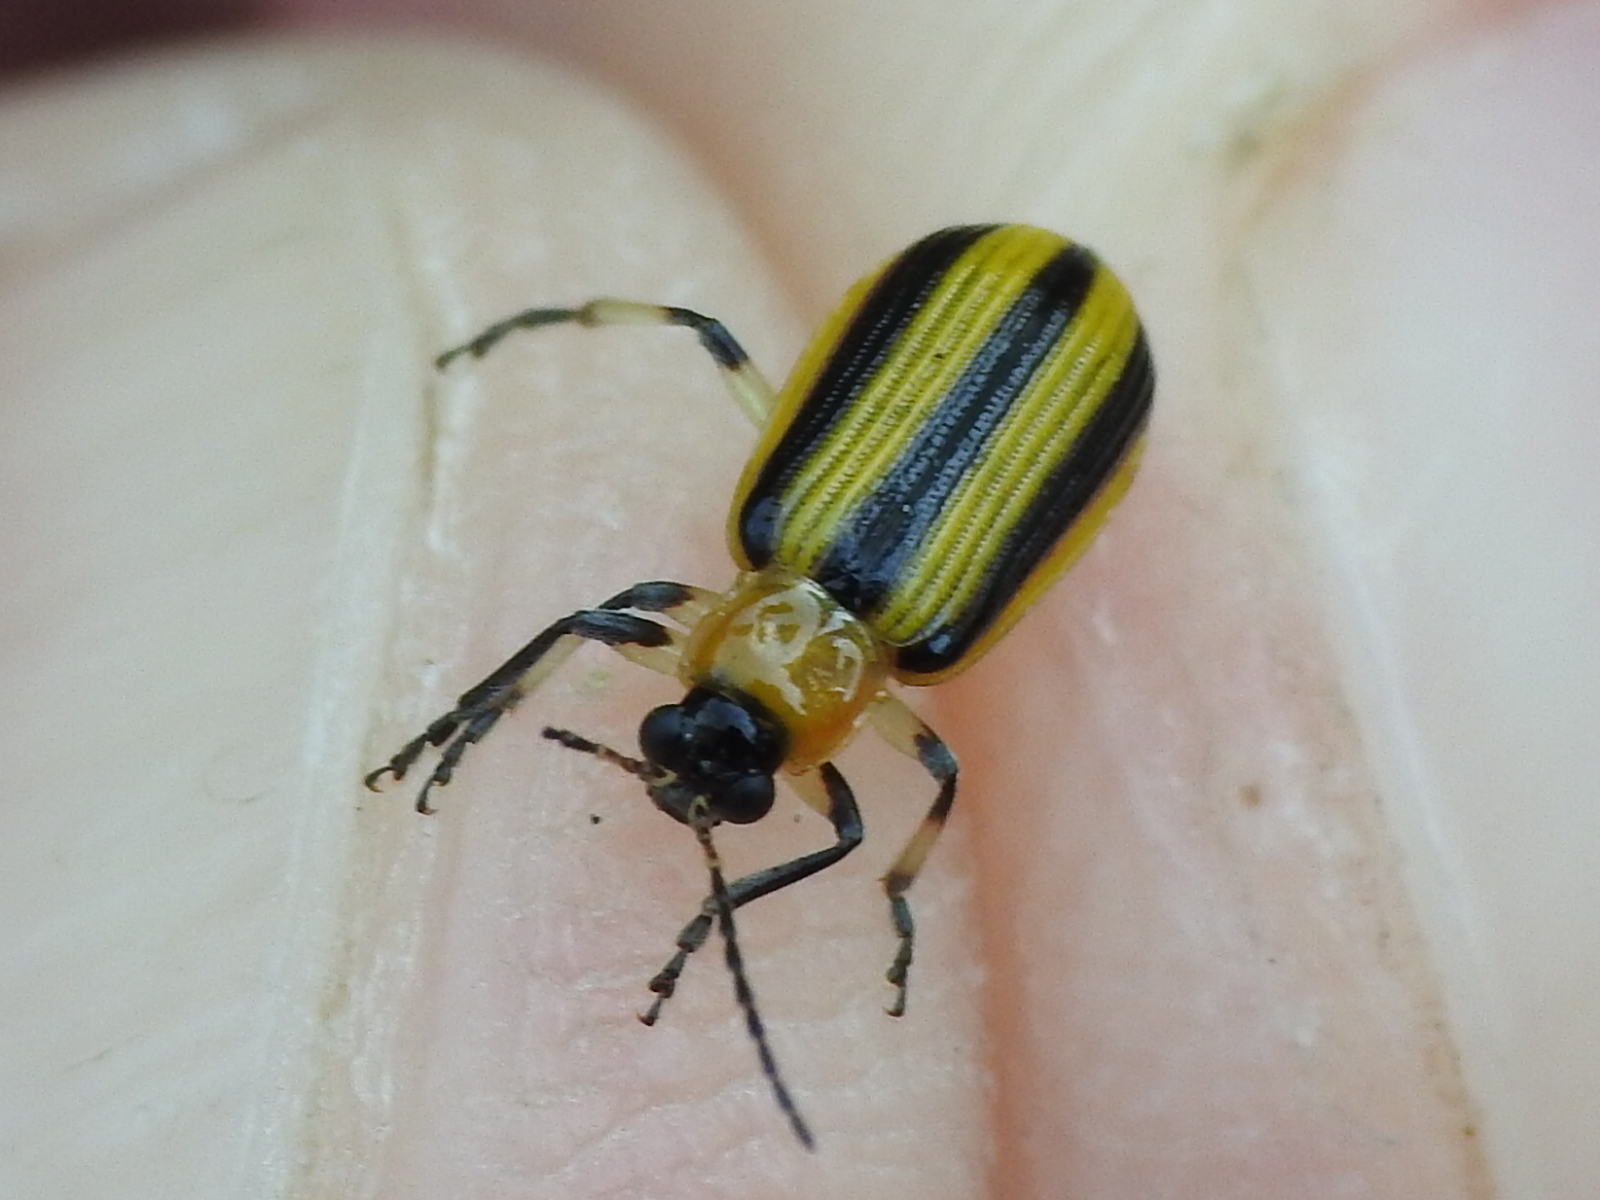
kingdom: Animalia
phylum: Arthropoda
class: Insecta
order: Coleoptera
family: Chrysomelidae
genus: Acalymma
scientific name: Acalymma vittatum
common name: Striped cucumber beetle
